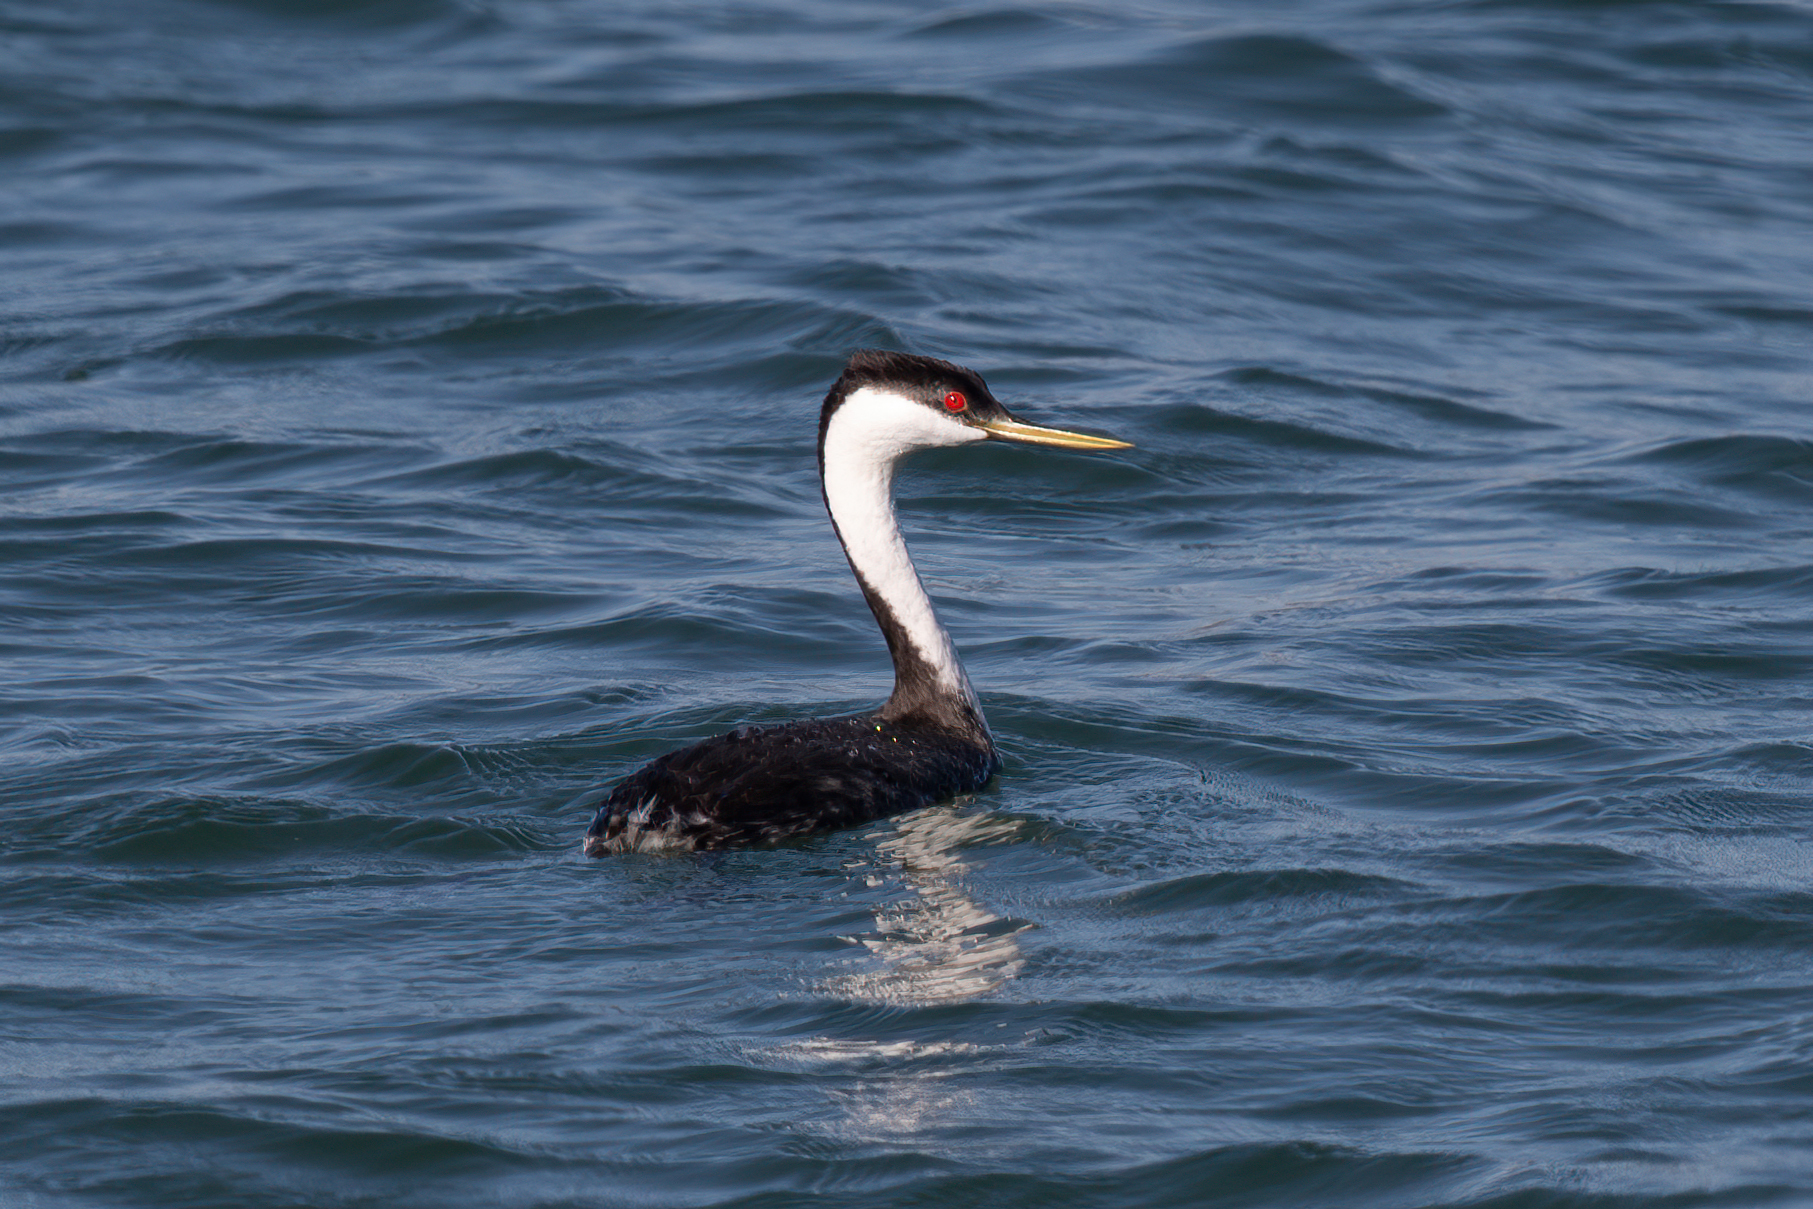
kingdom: Animalia
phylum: Chordata
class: Aves
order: Podicipediformes
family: Podicipedidae
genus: Aechmophorus
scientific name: Aechmophorus occidentalis
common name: Western grebe
